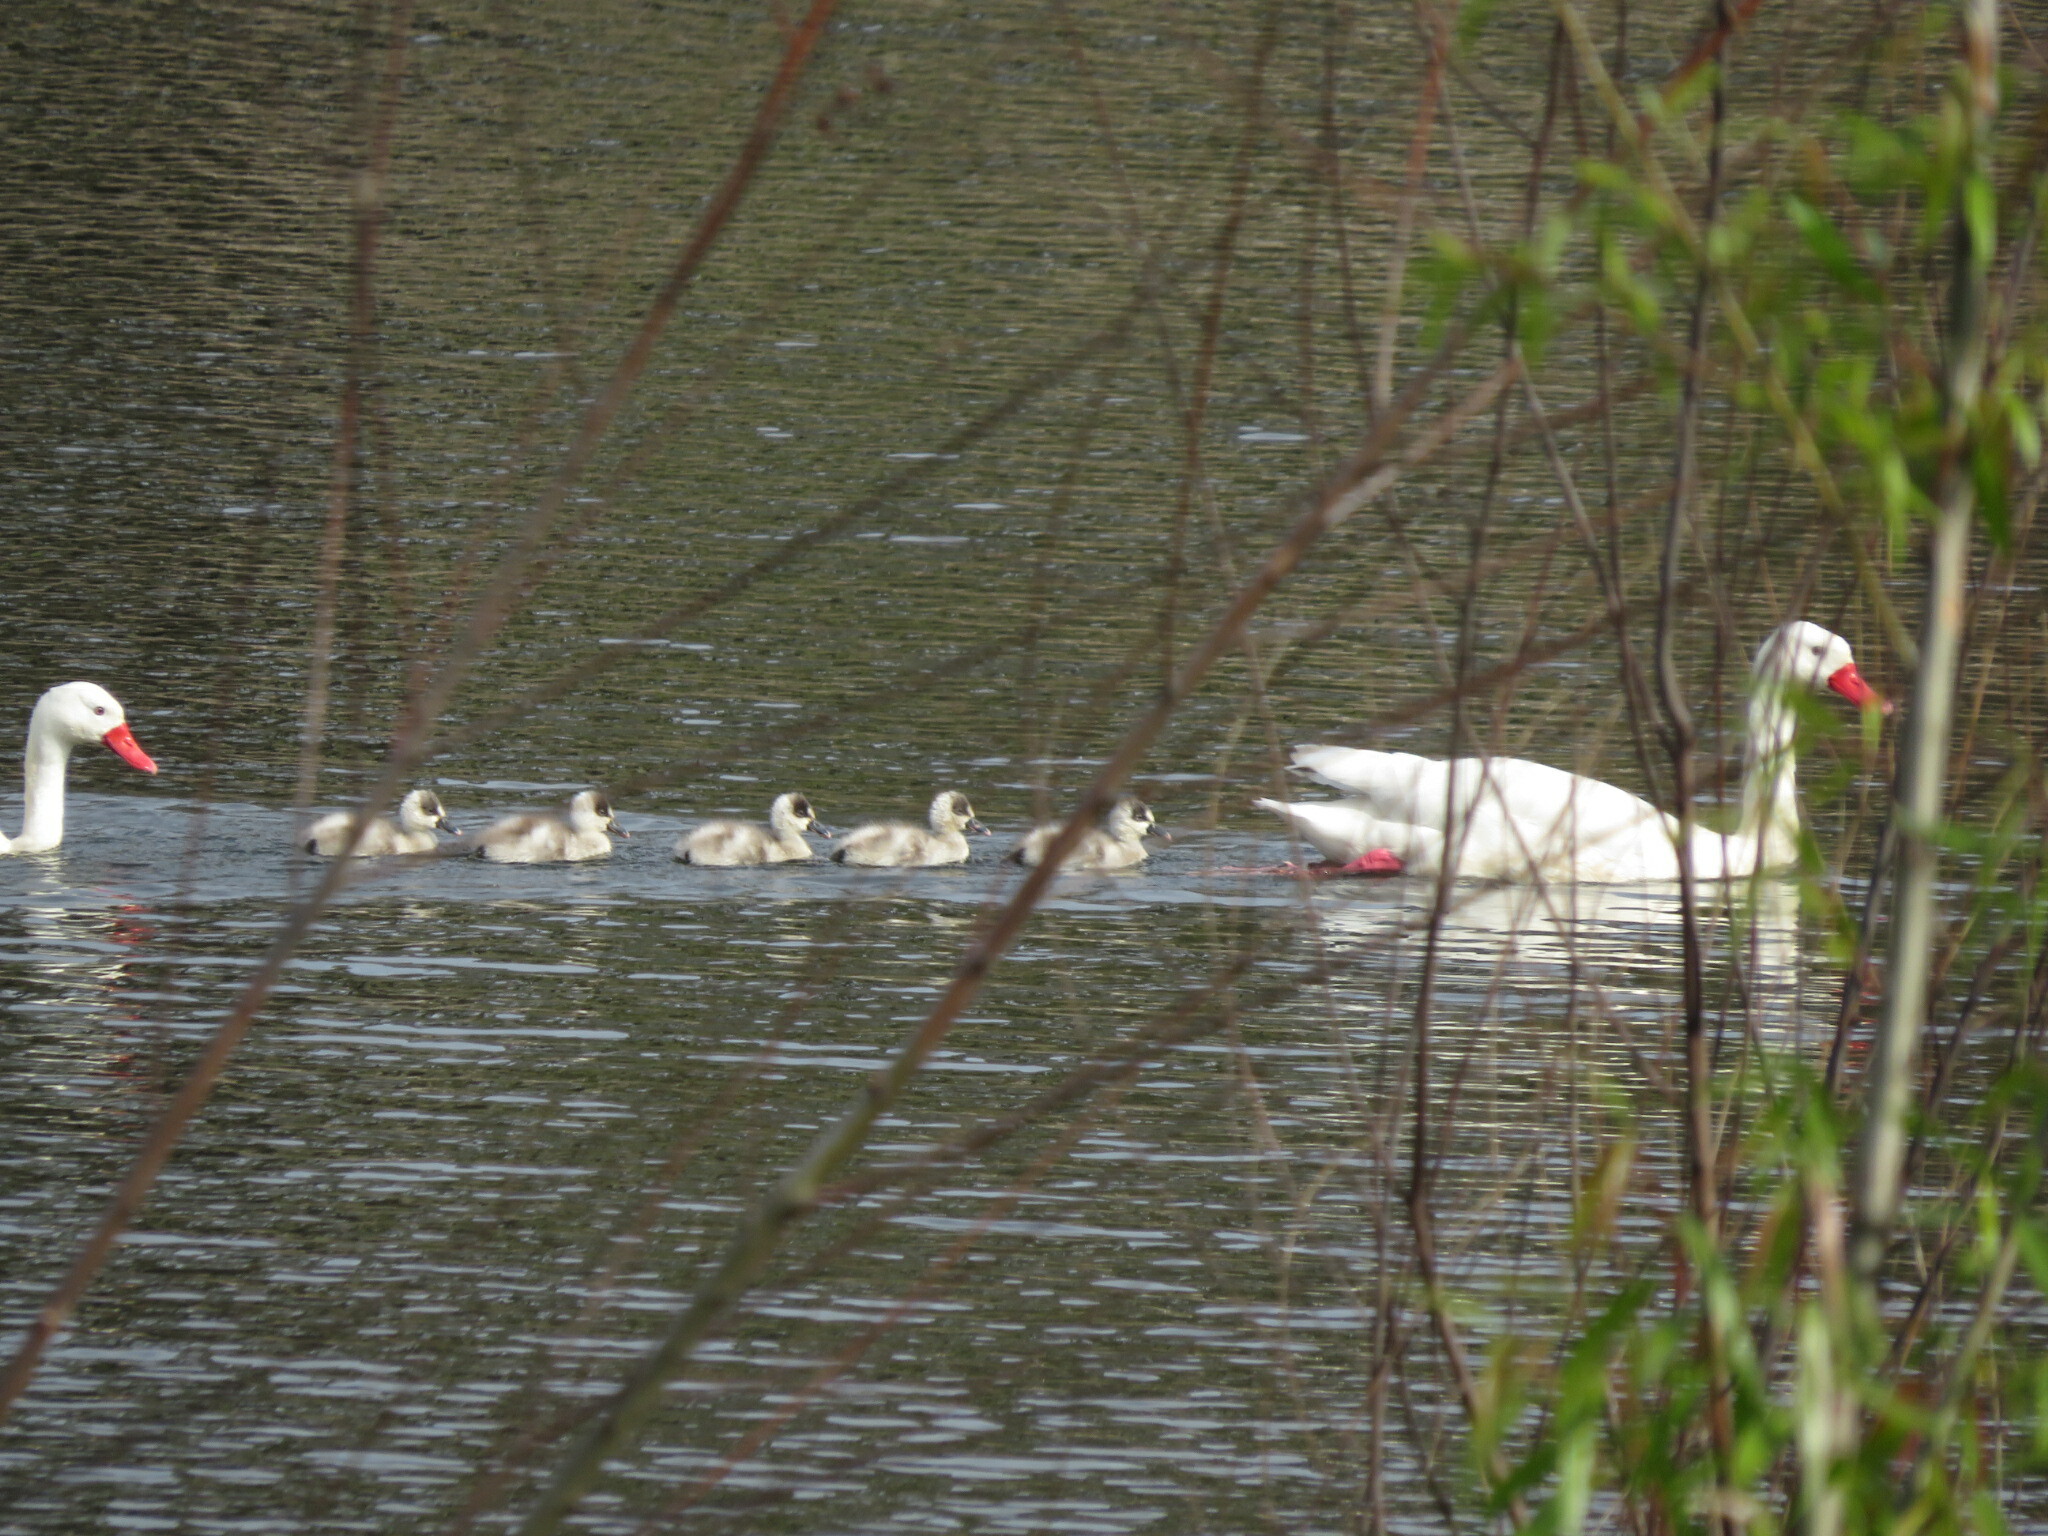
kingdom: Animalia
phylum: Chordata
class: Aves
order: Anseriformes
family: Anatidae
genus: Coscoroba
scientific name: Coscoroba coscoroba
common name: Coscoroba swan
